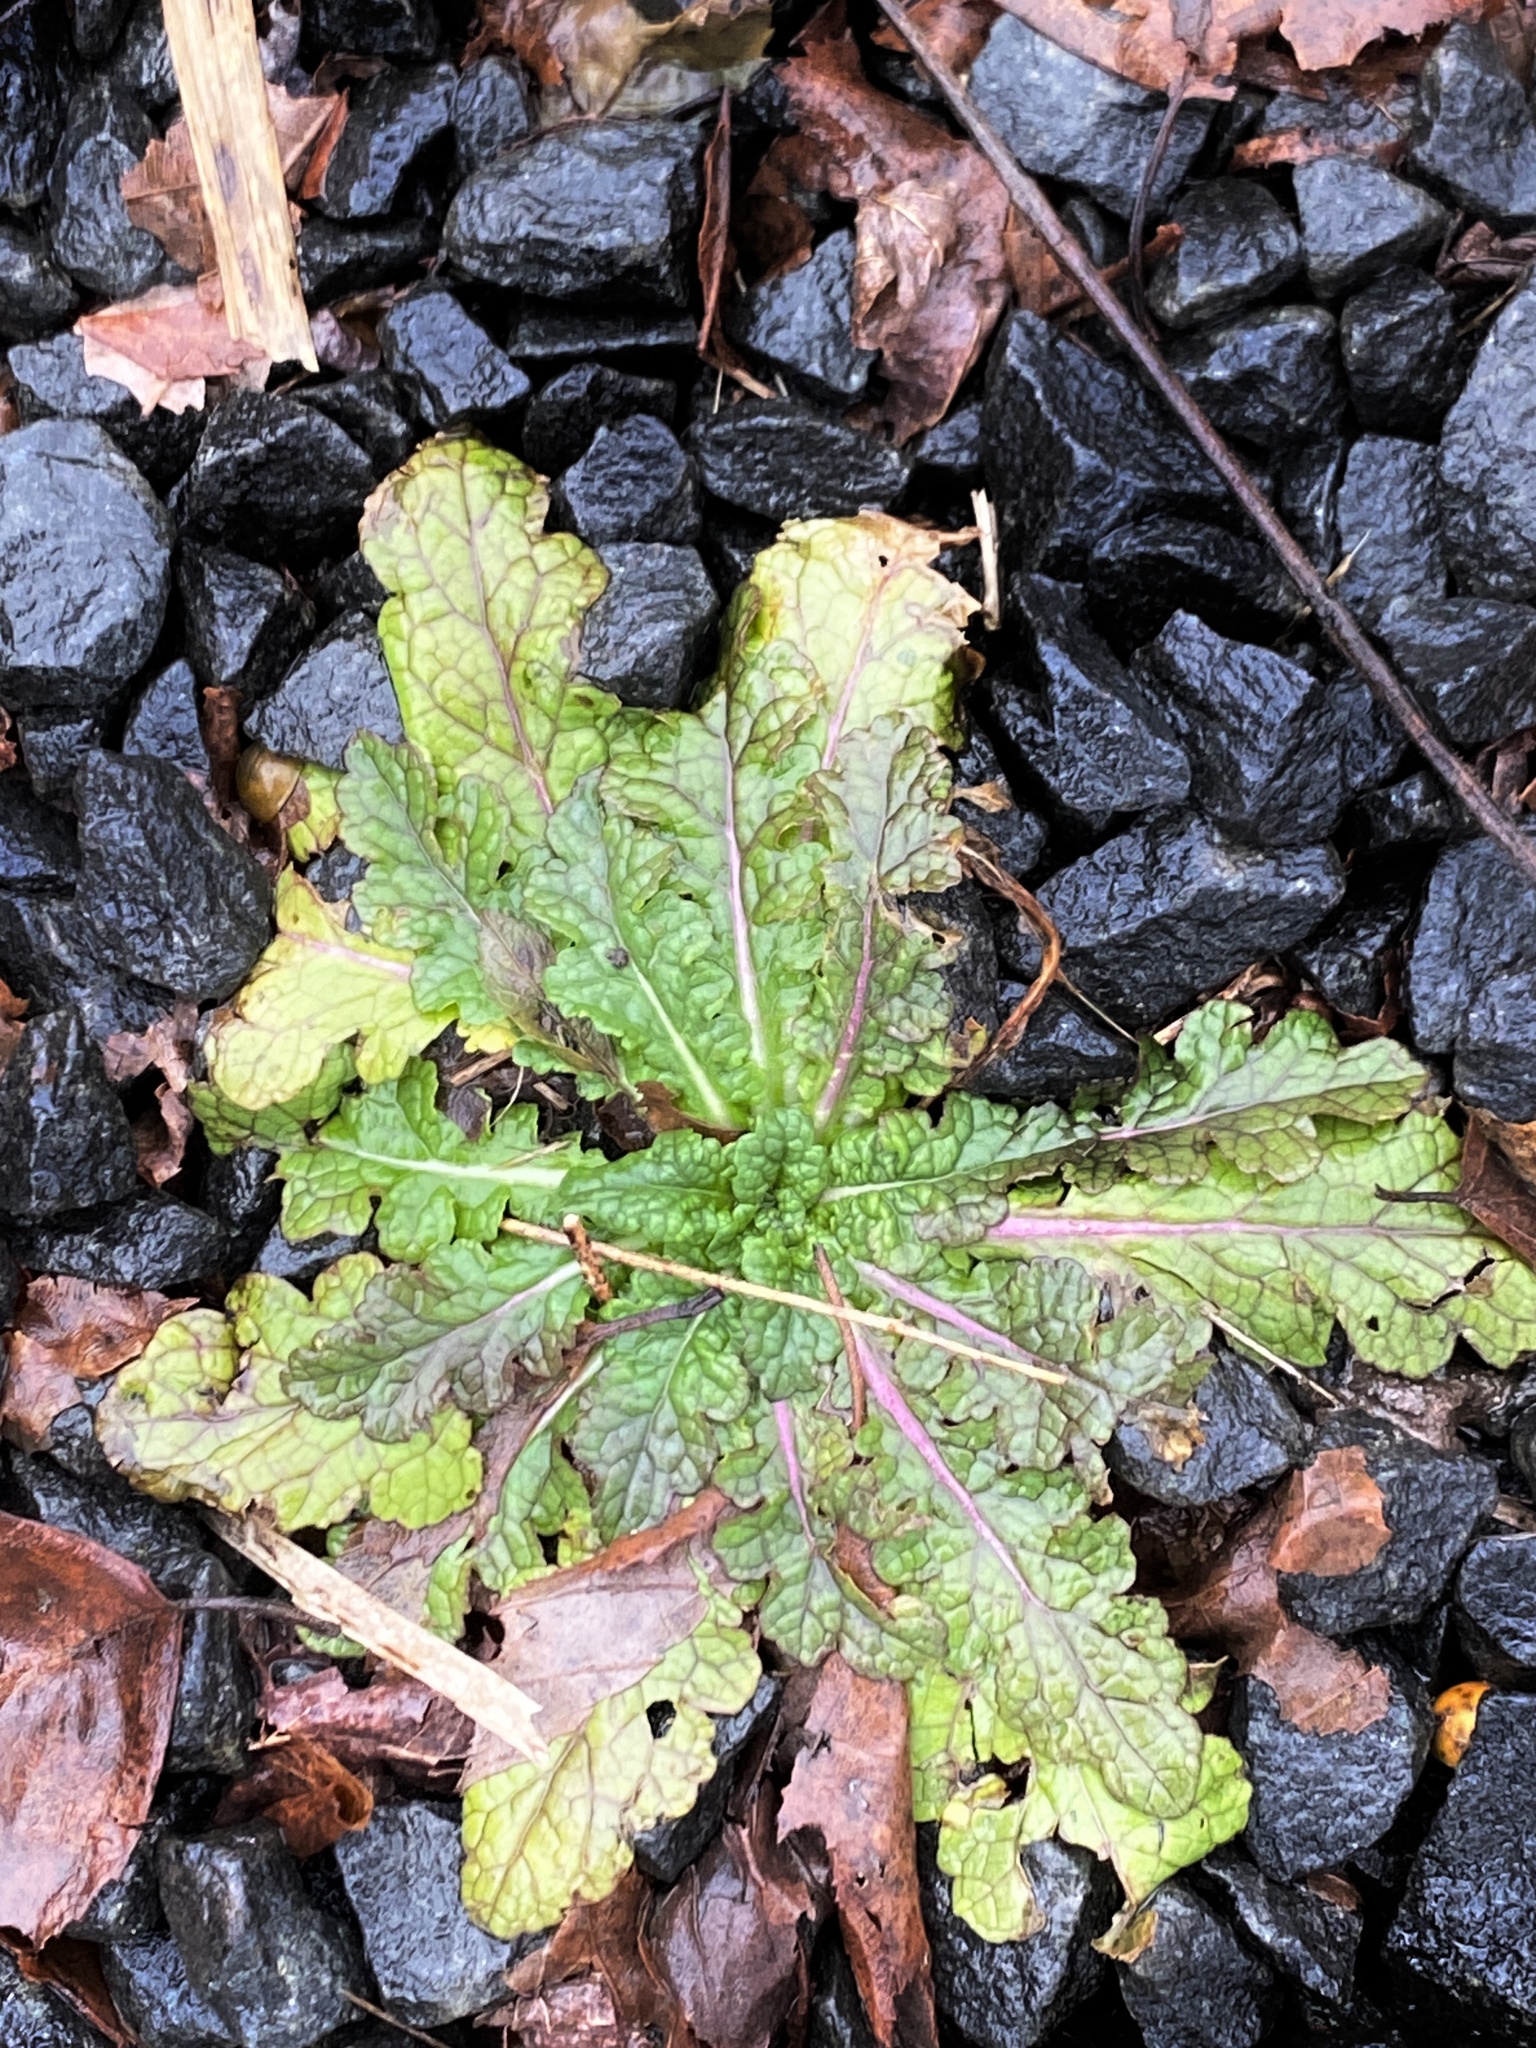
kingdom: Plantae
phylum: Tracheophyta
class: Magnoliopsida
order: Lamiales
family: Scrophulariaceae
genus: Verbascum
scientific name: Verbascum blattaria
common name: Moth mullein
